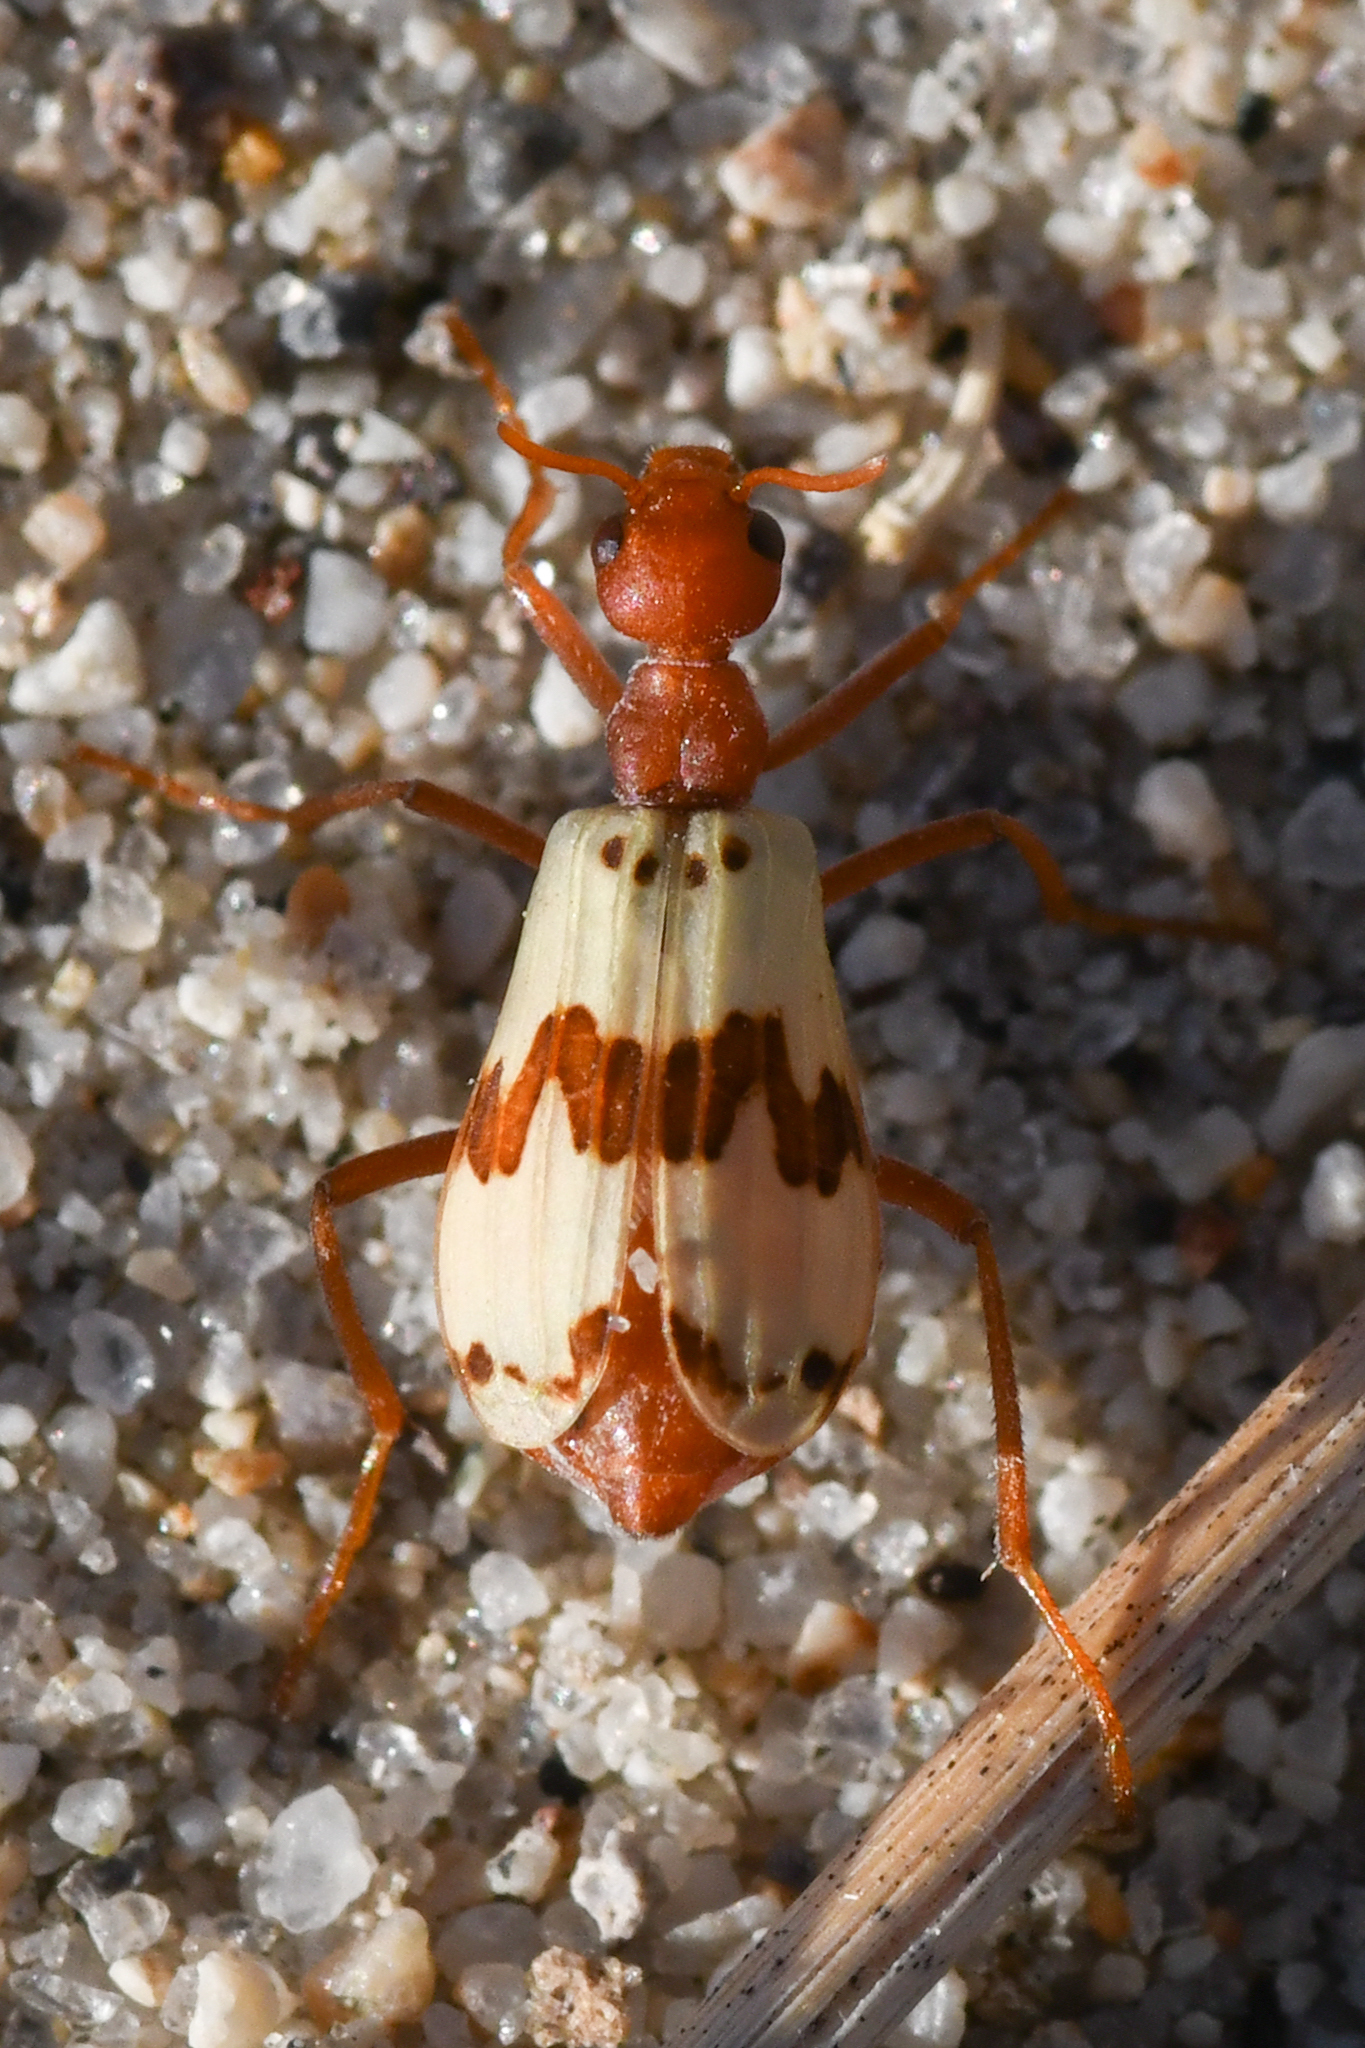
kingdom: Animalia
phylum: Arthropoda
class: Insecta
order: Coleoptera
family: Meloidae
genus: Pleuropasta
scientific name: Pleuropasta mirabilis
